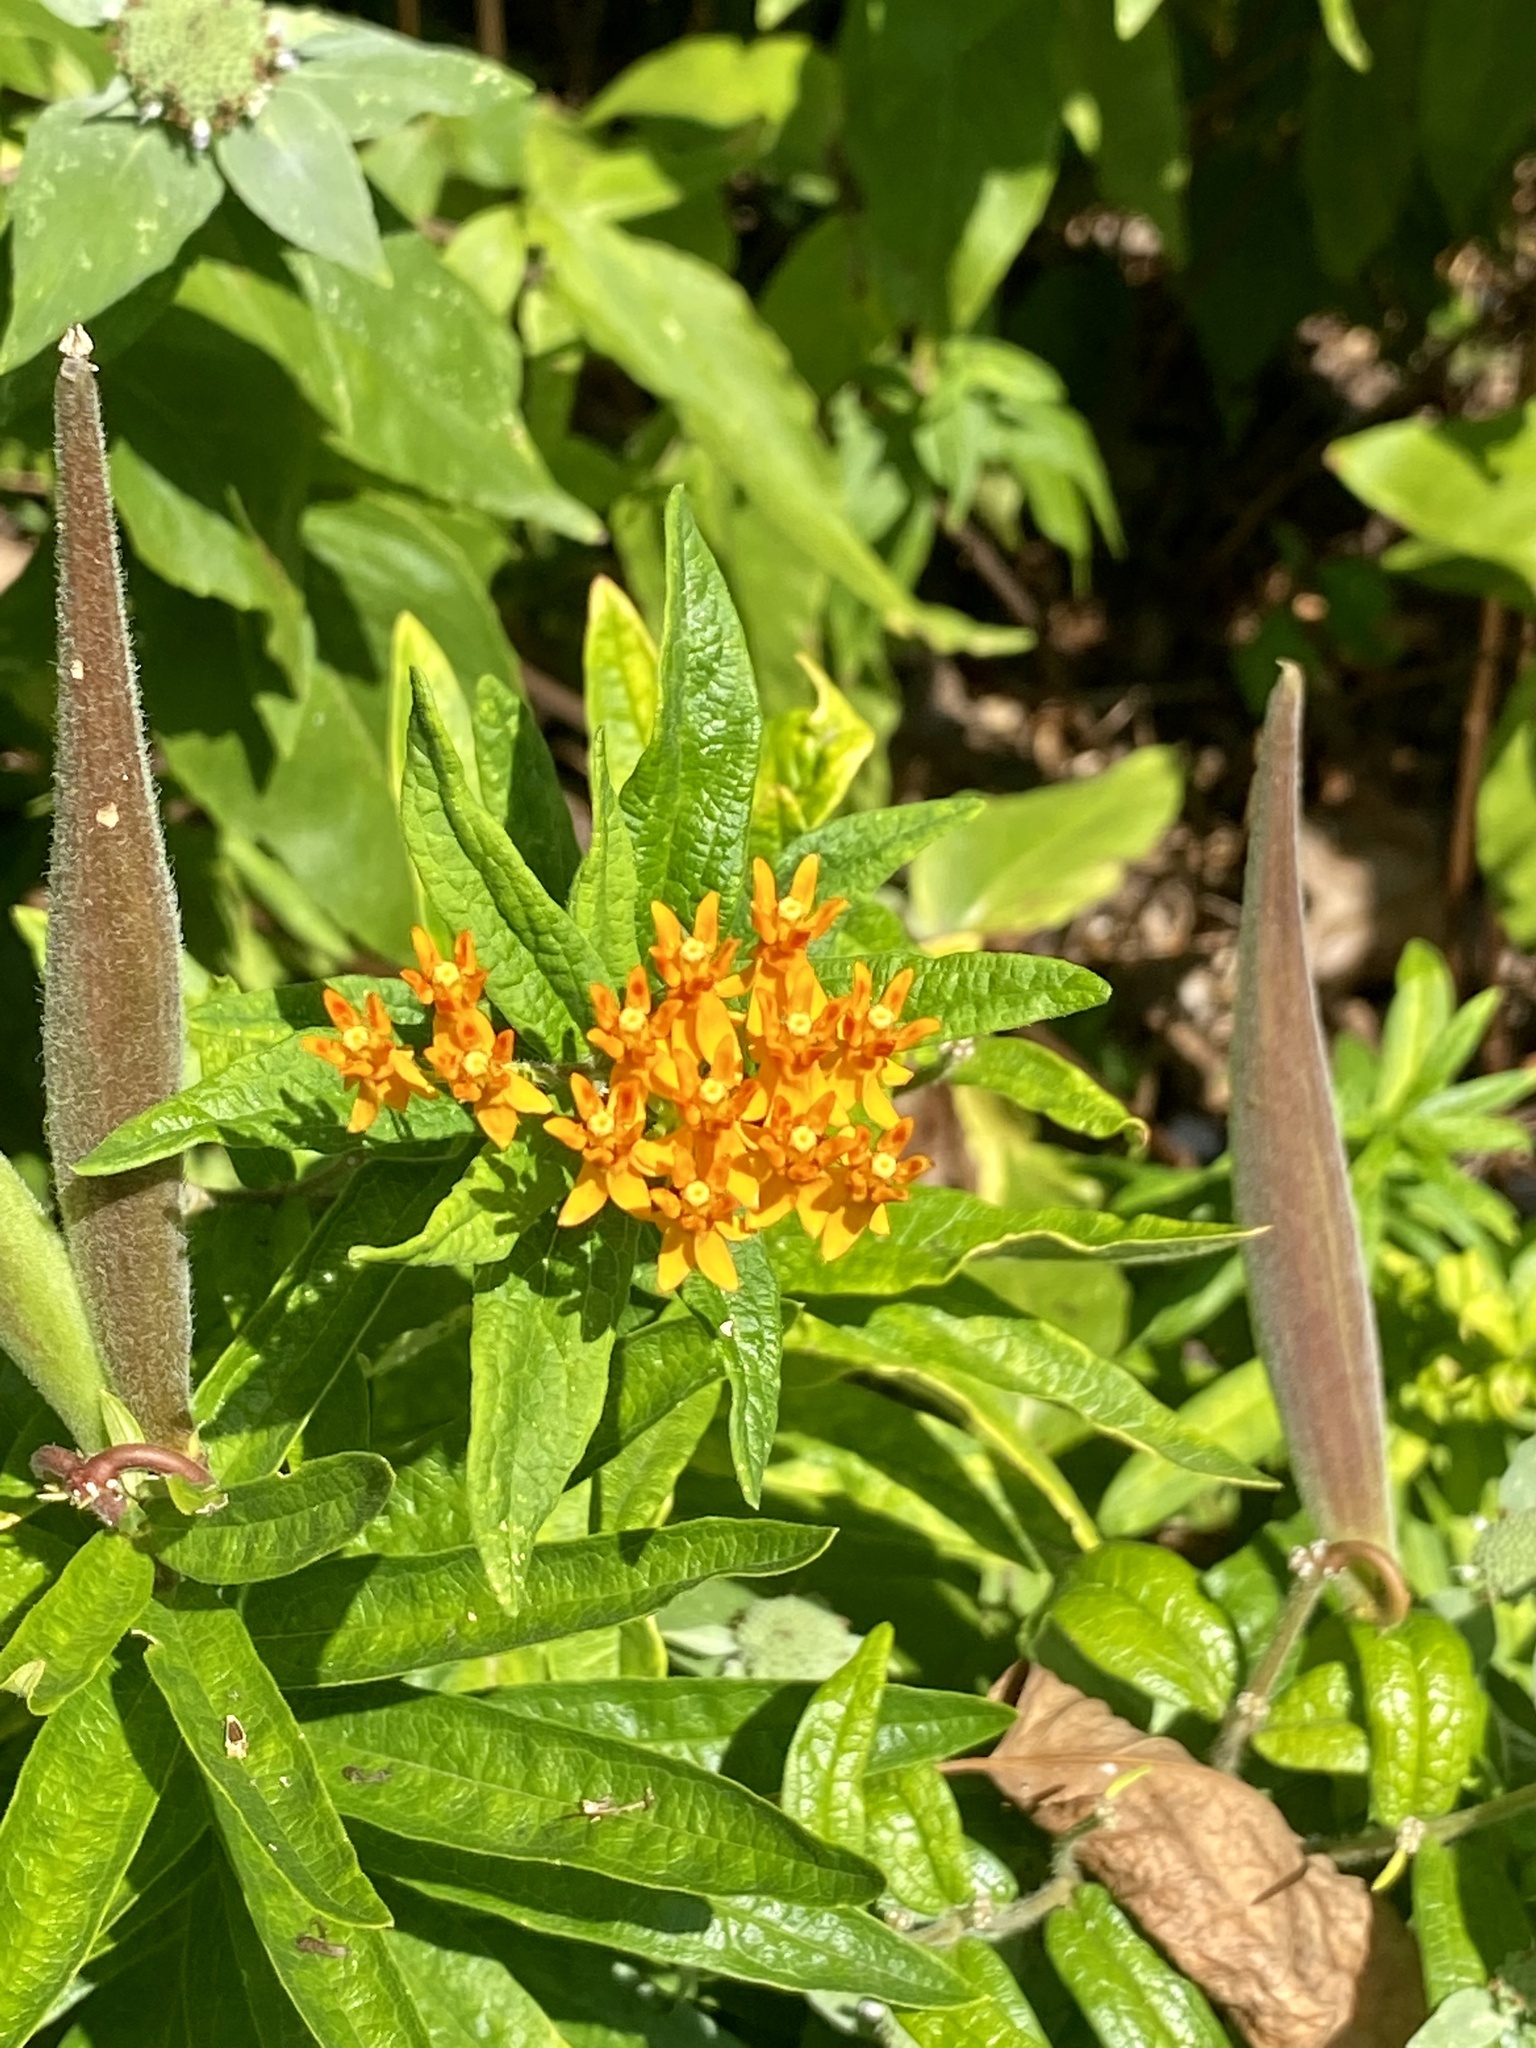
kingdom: Plantae
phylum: Tracheophyta
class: Magnoliopsida
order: Gentianales
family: Apocynaceae
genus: Asclepias
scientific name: Asclepias tuberosa
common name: Butterfly milkweed
